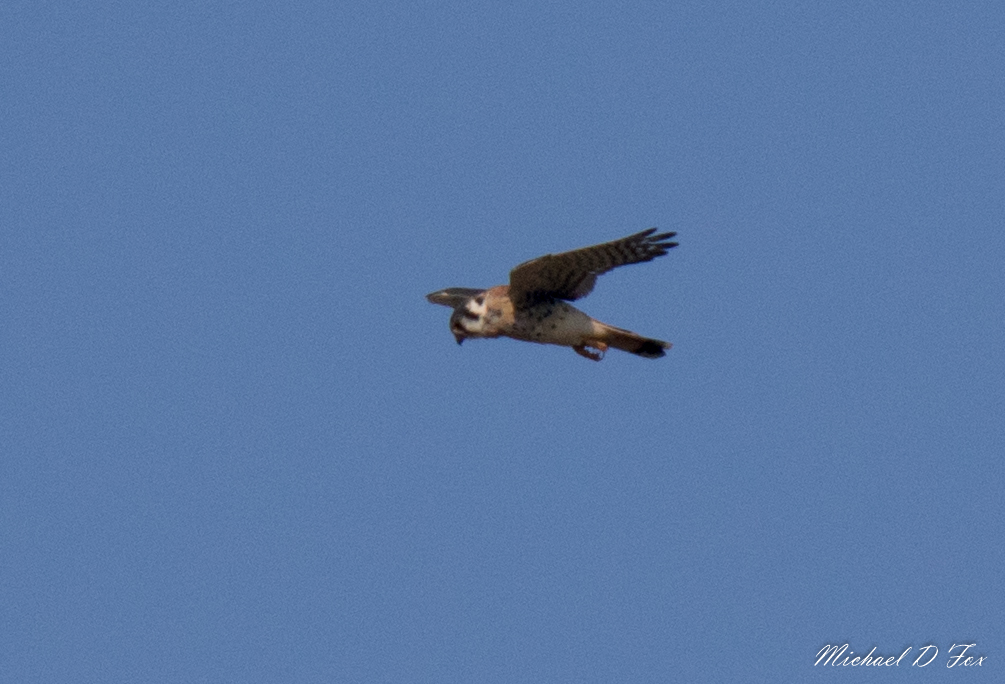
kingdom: Animalia
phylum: Chordata
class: Aves
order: Falconiformes
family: Falconidae
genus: Falco
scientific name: Falco sparverius
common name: American kestrel
